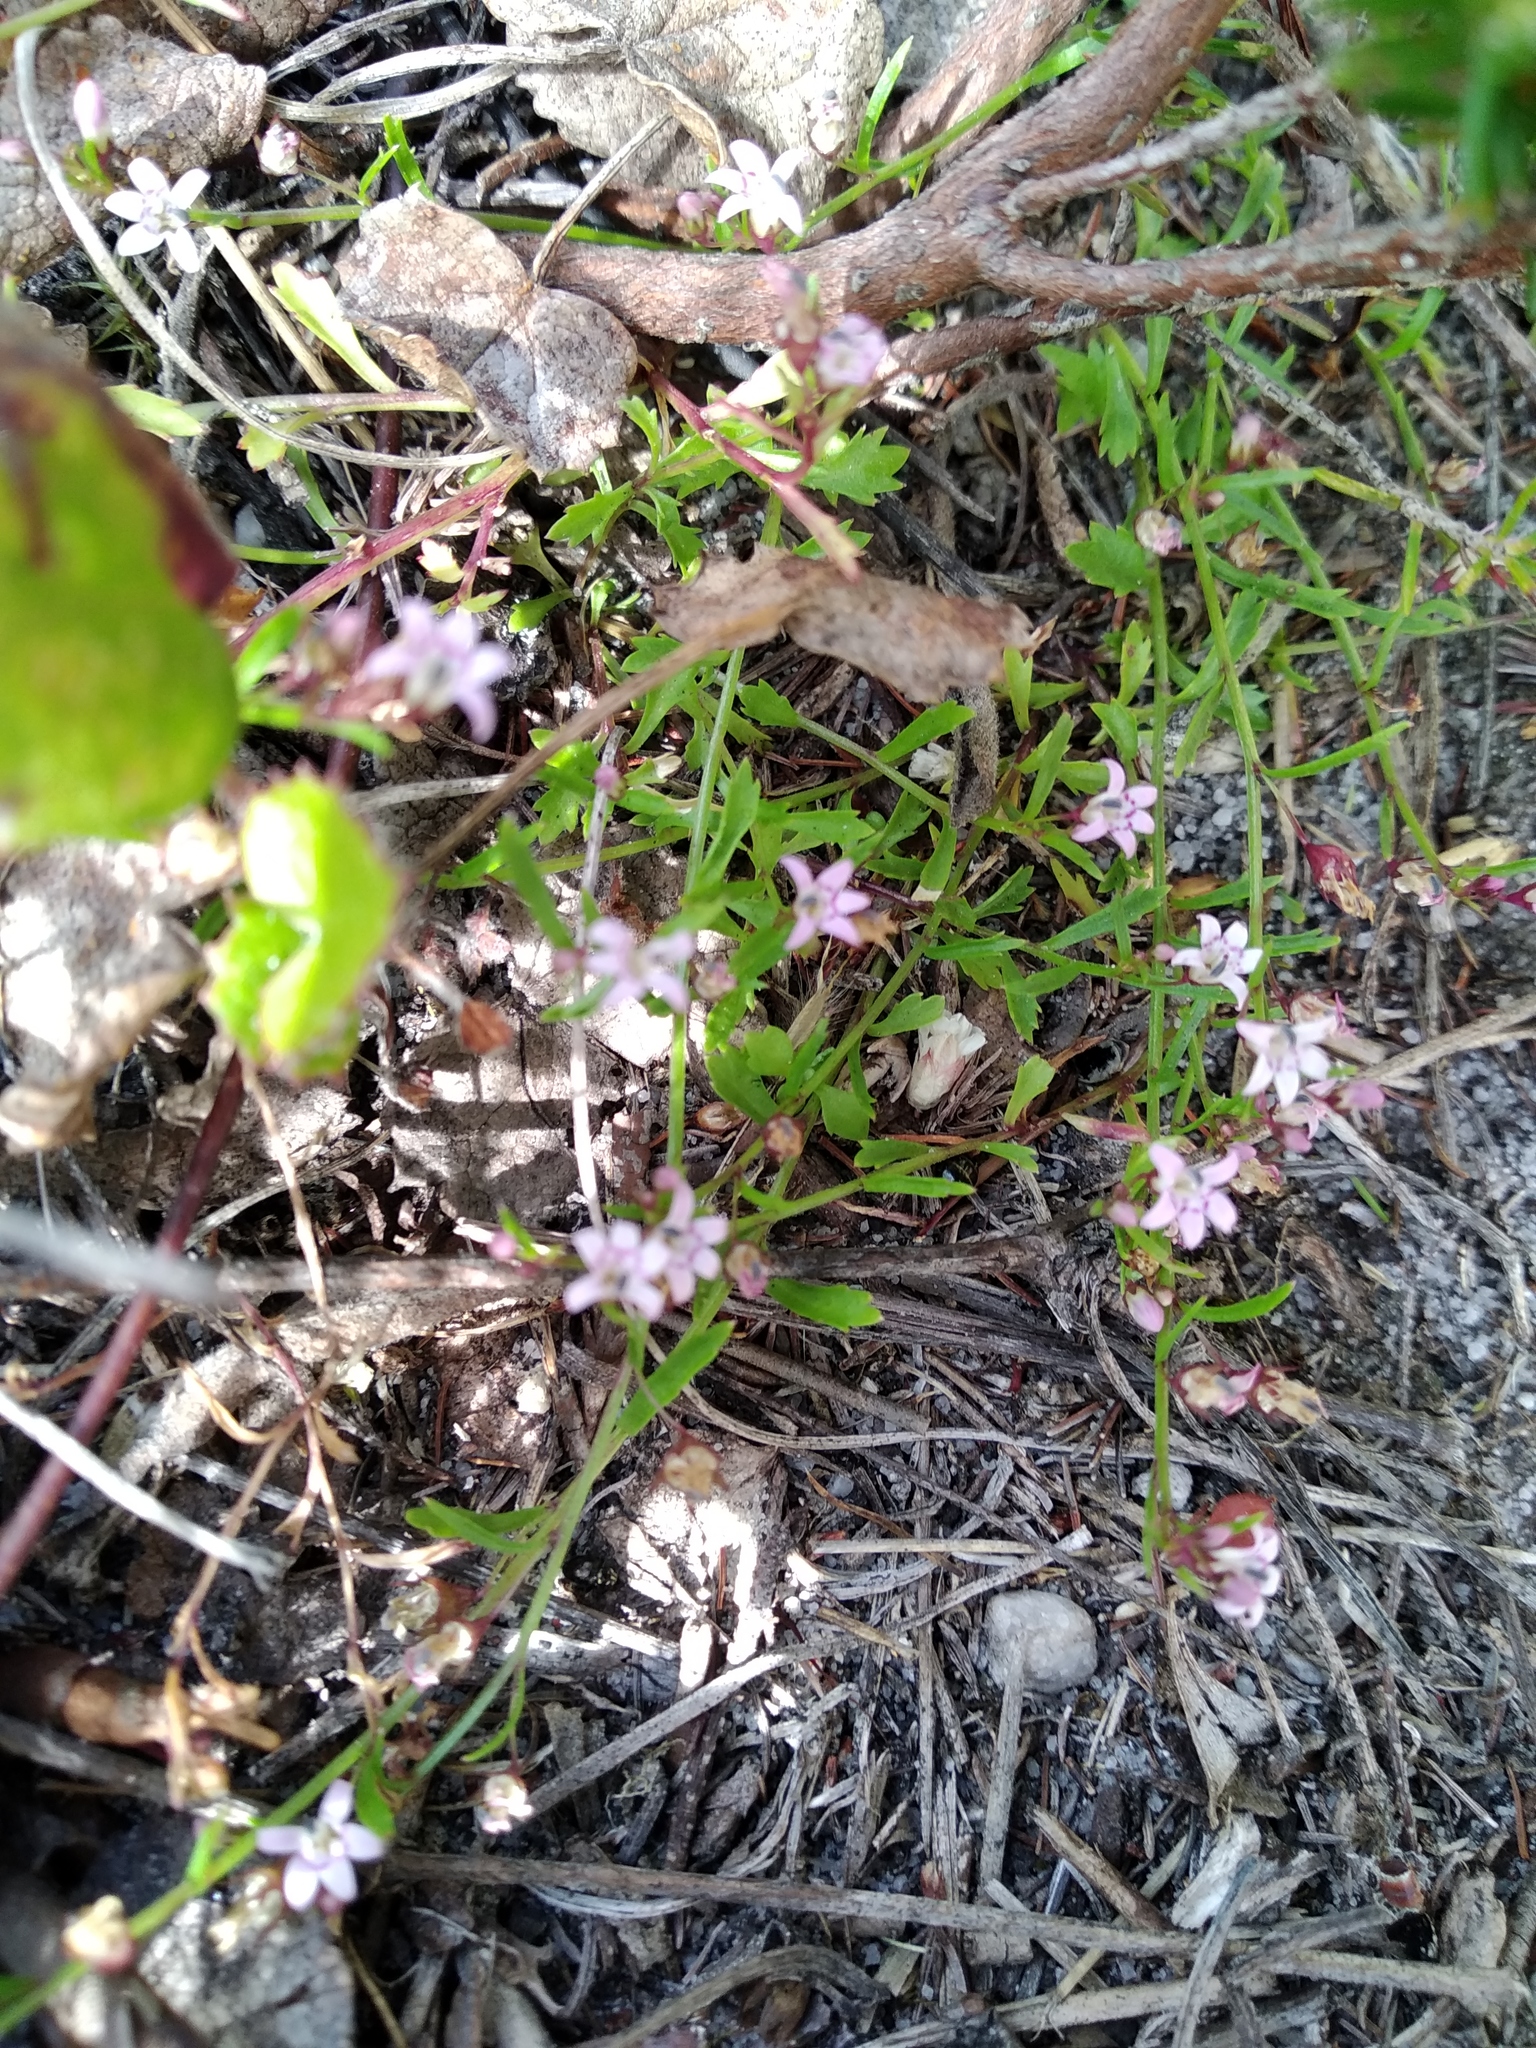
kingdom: Plantae
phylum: Tracheophyta
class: Magnoliopsida
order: Asterales
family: Campanulaceae
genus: Lobelia
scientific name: Lobelia eckloniana
